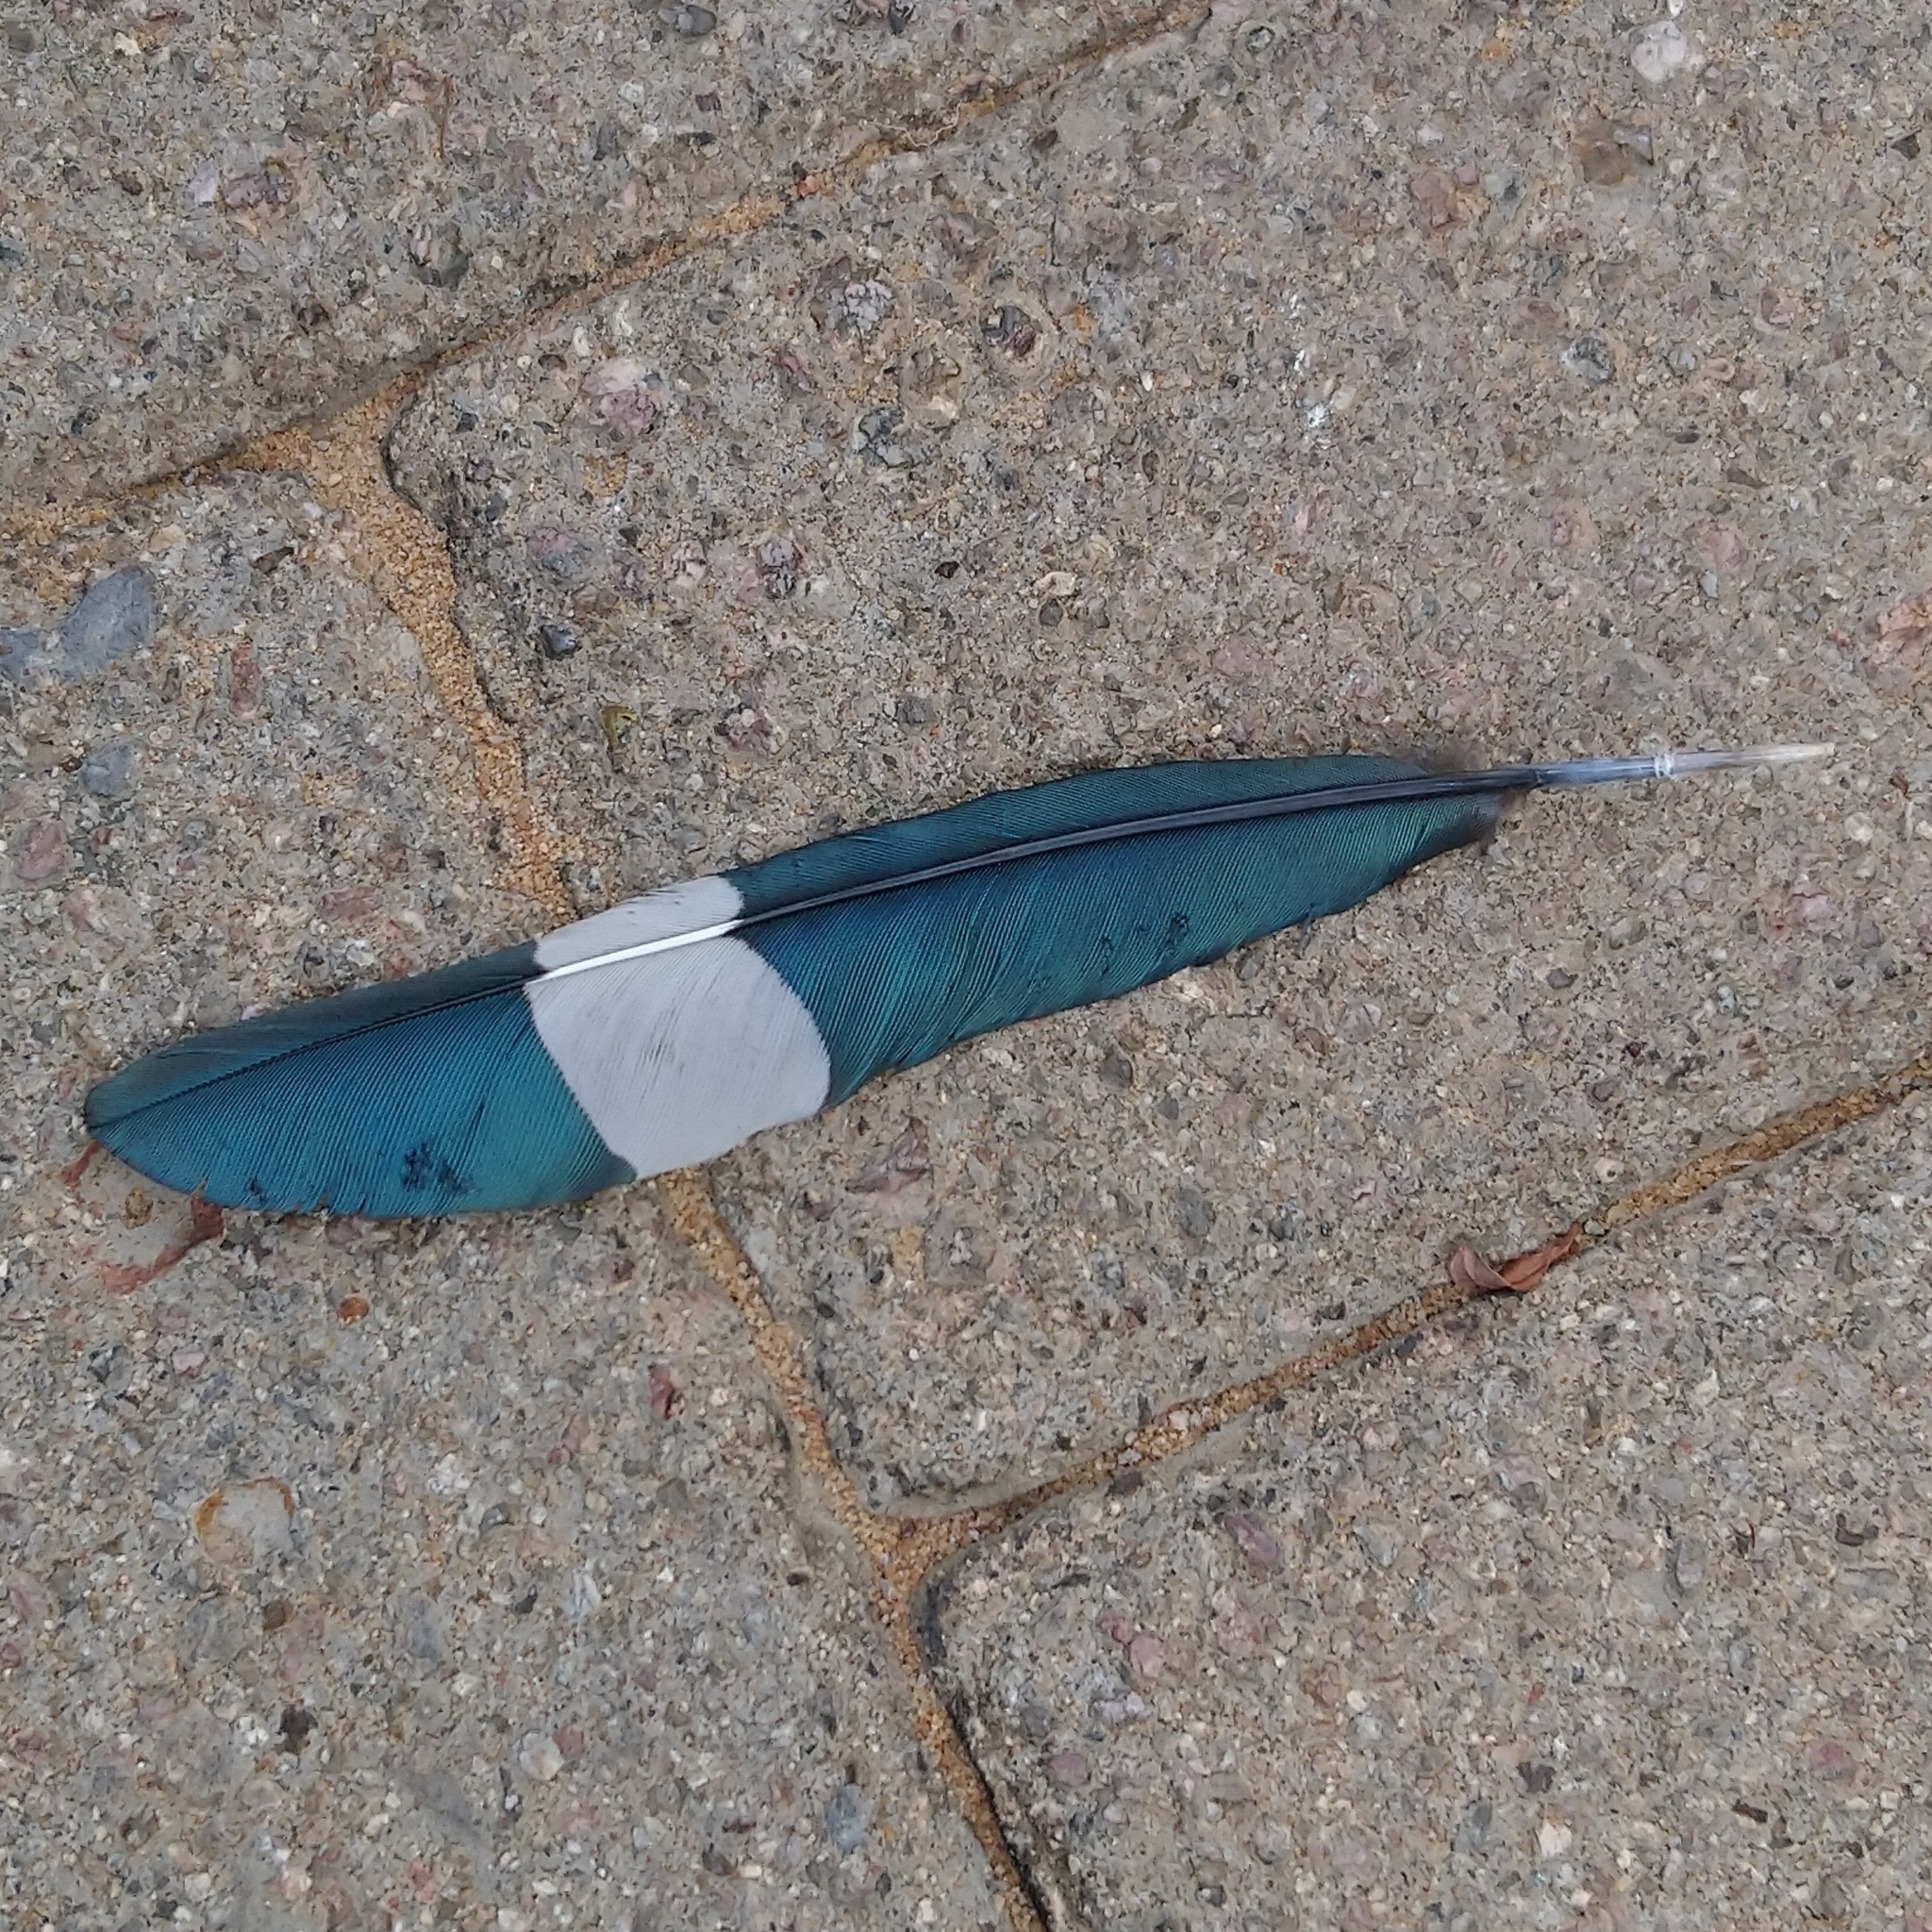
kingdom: Animalia
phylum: Chordata
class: Aves
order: Bucerotiformes
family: Phoeniculidae
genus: Phoeniculus
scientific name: Phoeniculus purpureus
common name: Green woodhoopoe
